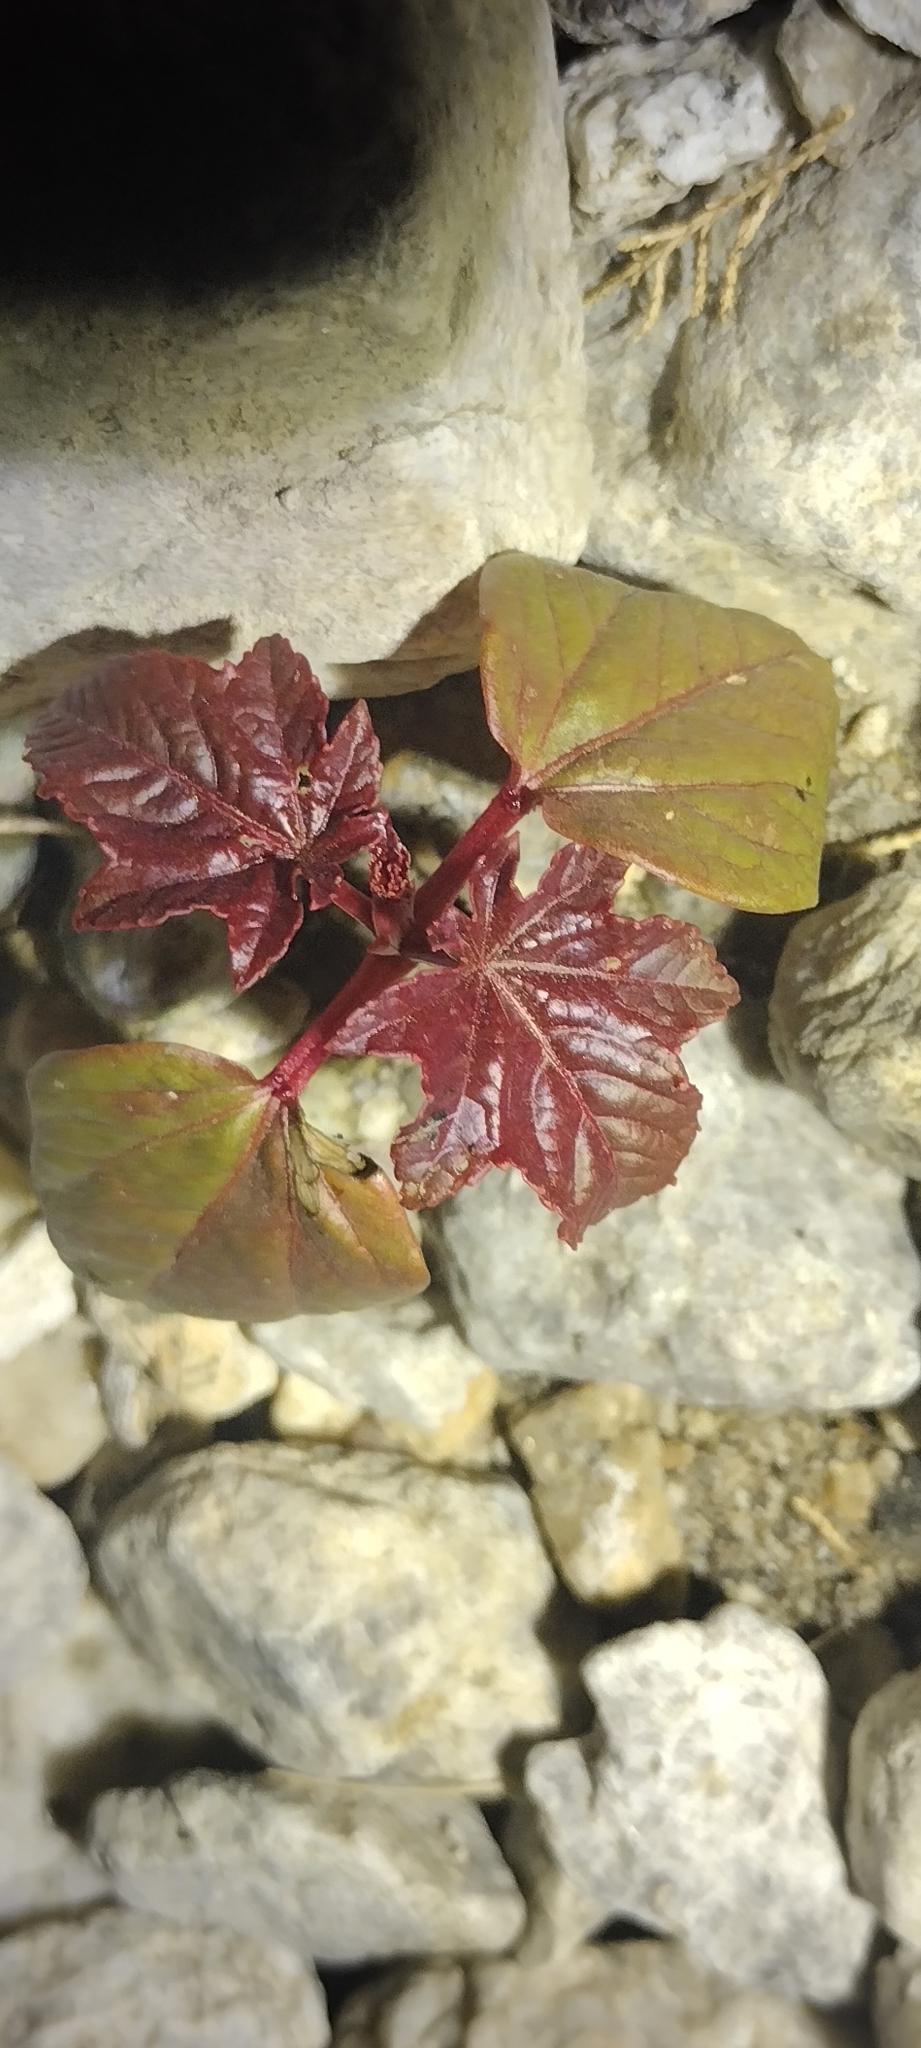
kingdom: Plantae
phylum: Tracheophyta
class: Magnoliopsida
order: Malpighiales
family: Euphorbiaceae
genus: Ricinus
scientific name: Ricinus communis
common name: Castor-oil-plant
